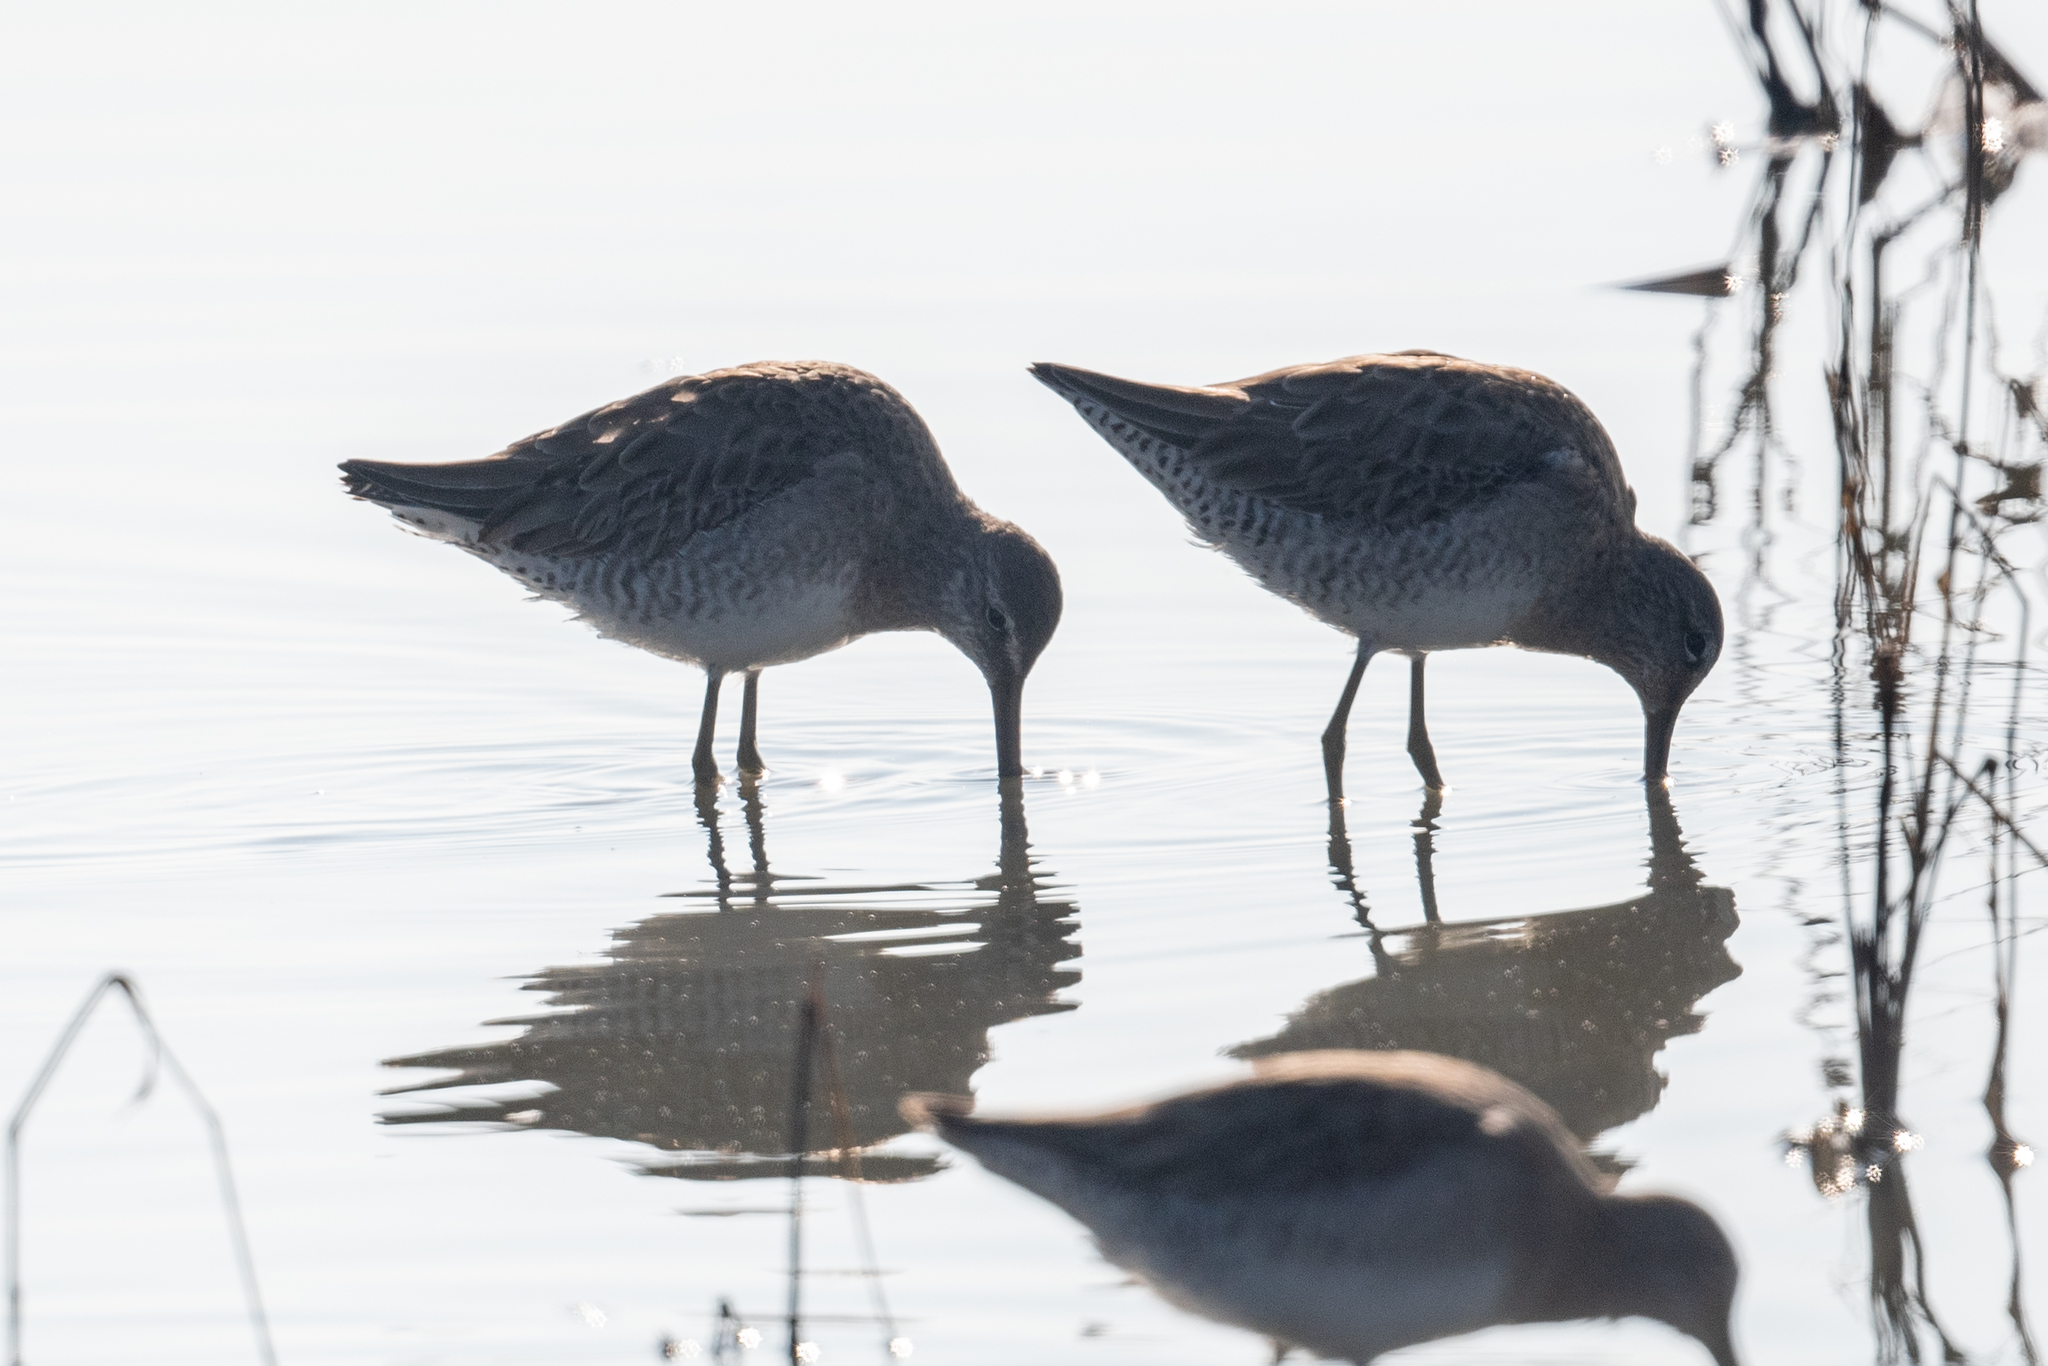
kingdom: Animalia
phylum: Chordata
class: Aves
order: Charadriiformes
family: Scolopacidae
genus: Limnodromus
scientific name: Limnodromus scolopaceus
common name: Long-billed dowitcher
